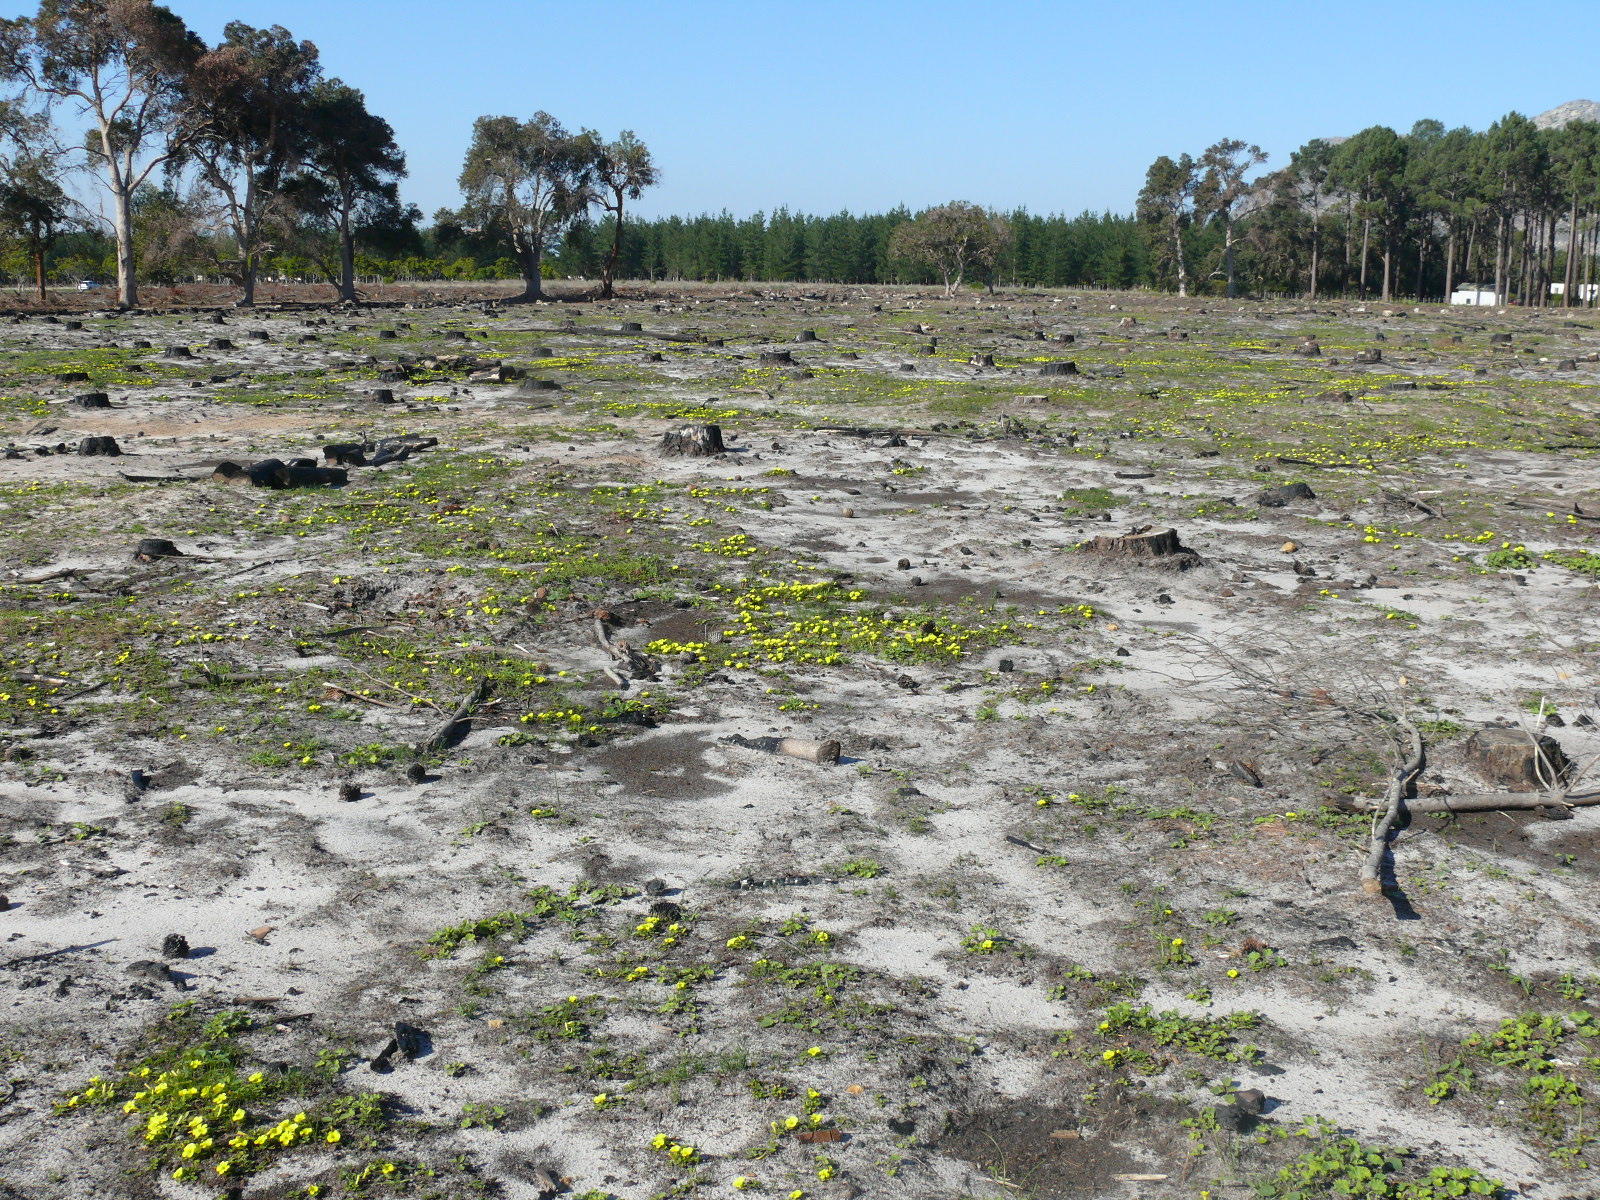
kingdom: Plantae
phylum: Tracheophyta
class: Magnoliopsida
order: Oxalidales
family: Oxalidaceae
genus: Oxalis
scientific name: Oxalis luteola
